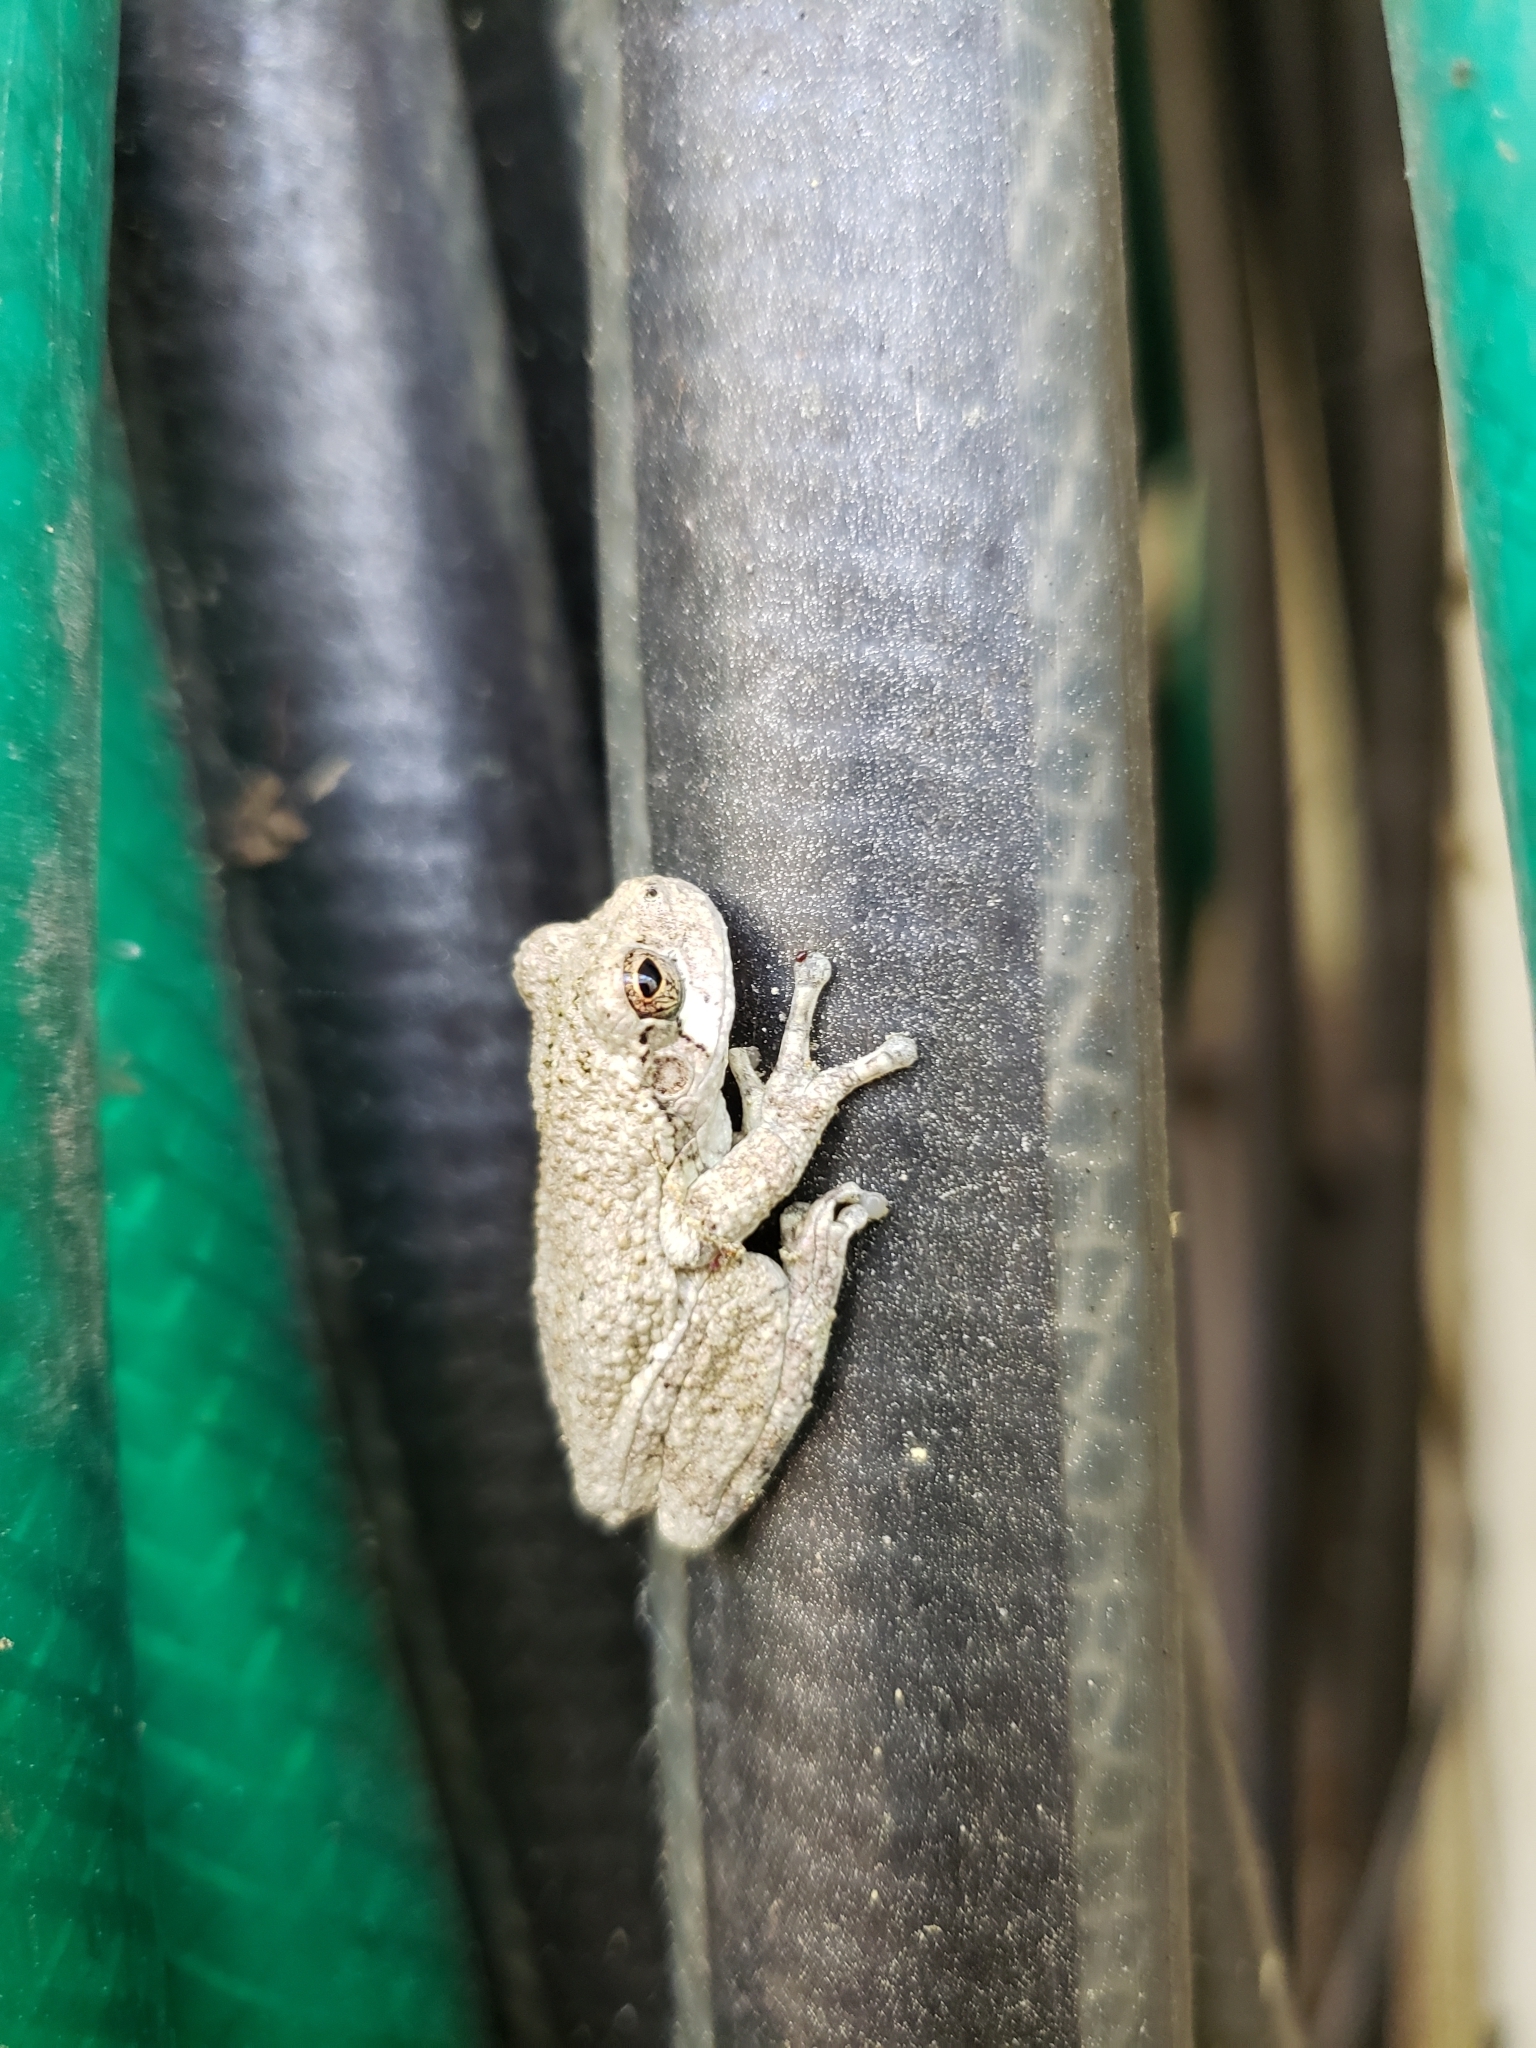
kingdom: Animalia
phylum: Chordata
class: Amphibia
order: Anura
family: Hylidae
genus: Dryophytes
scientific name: Dryophytes chrysoscelis
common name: Cope's gray treefrog
